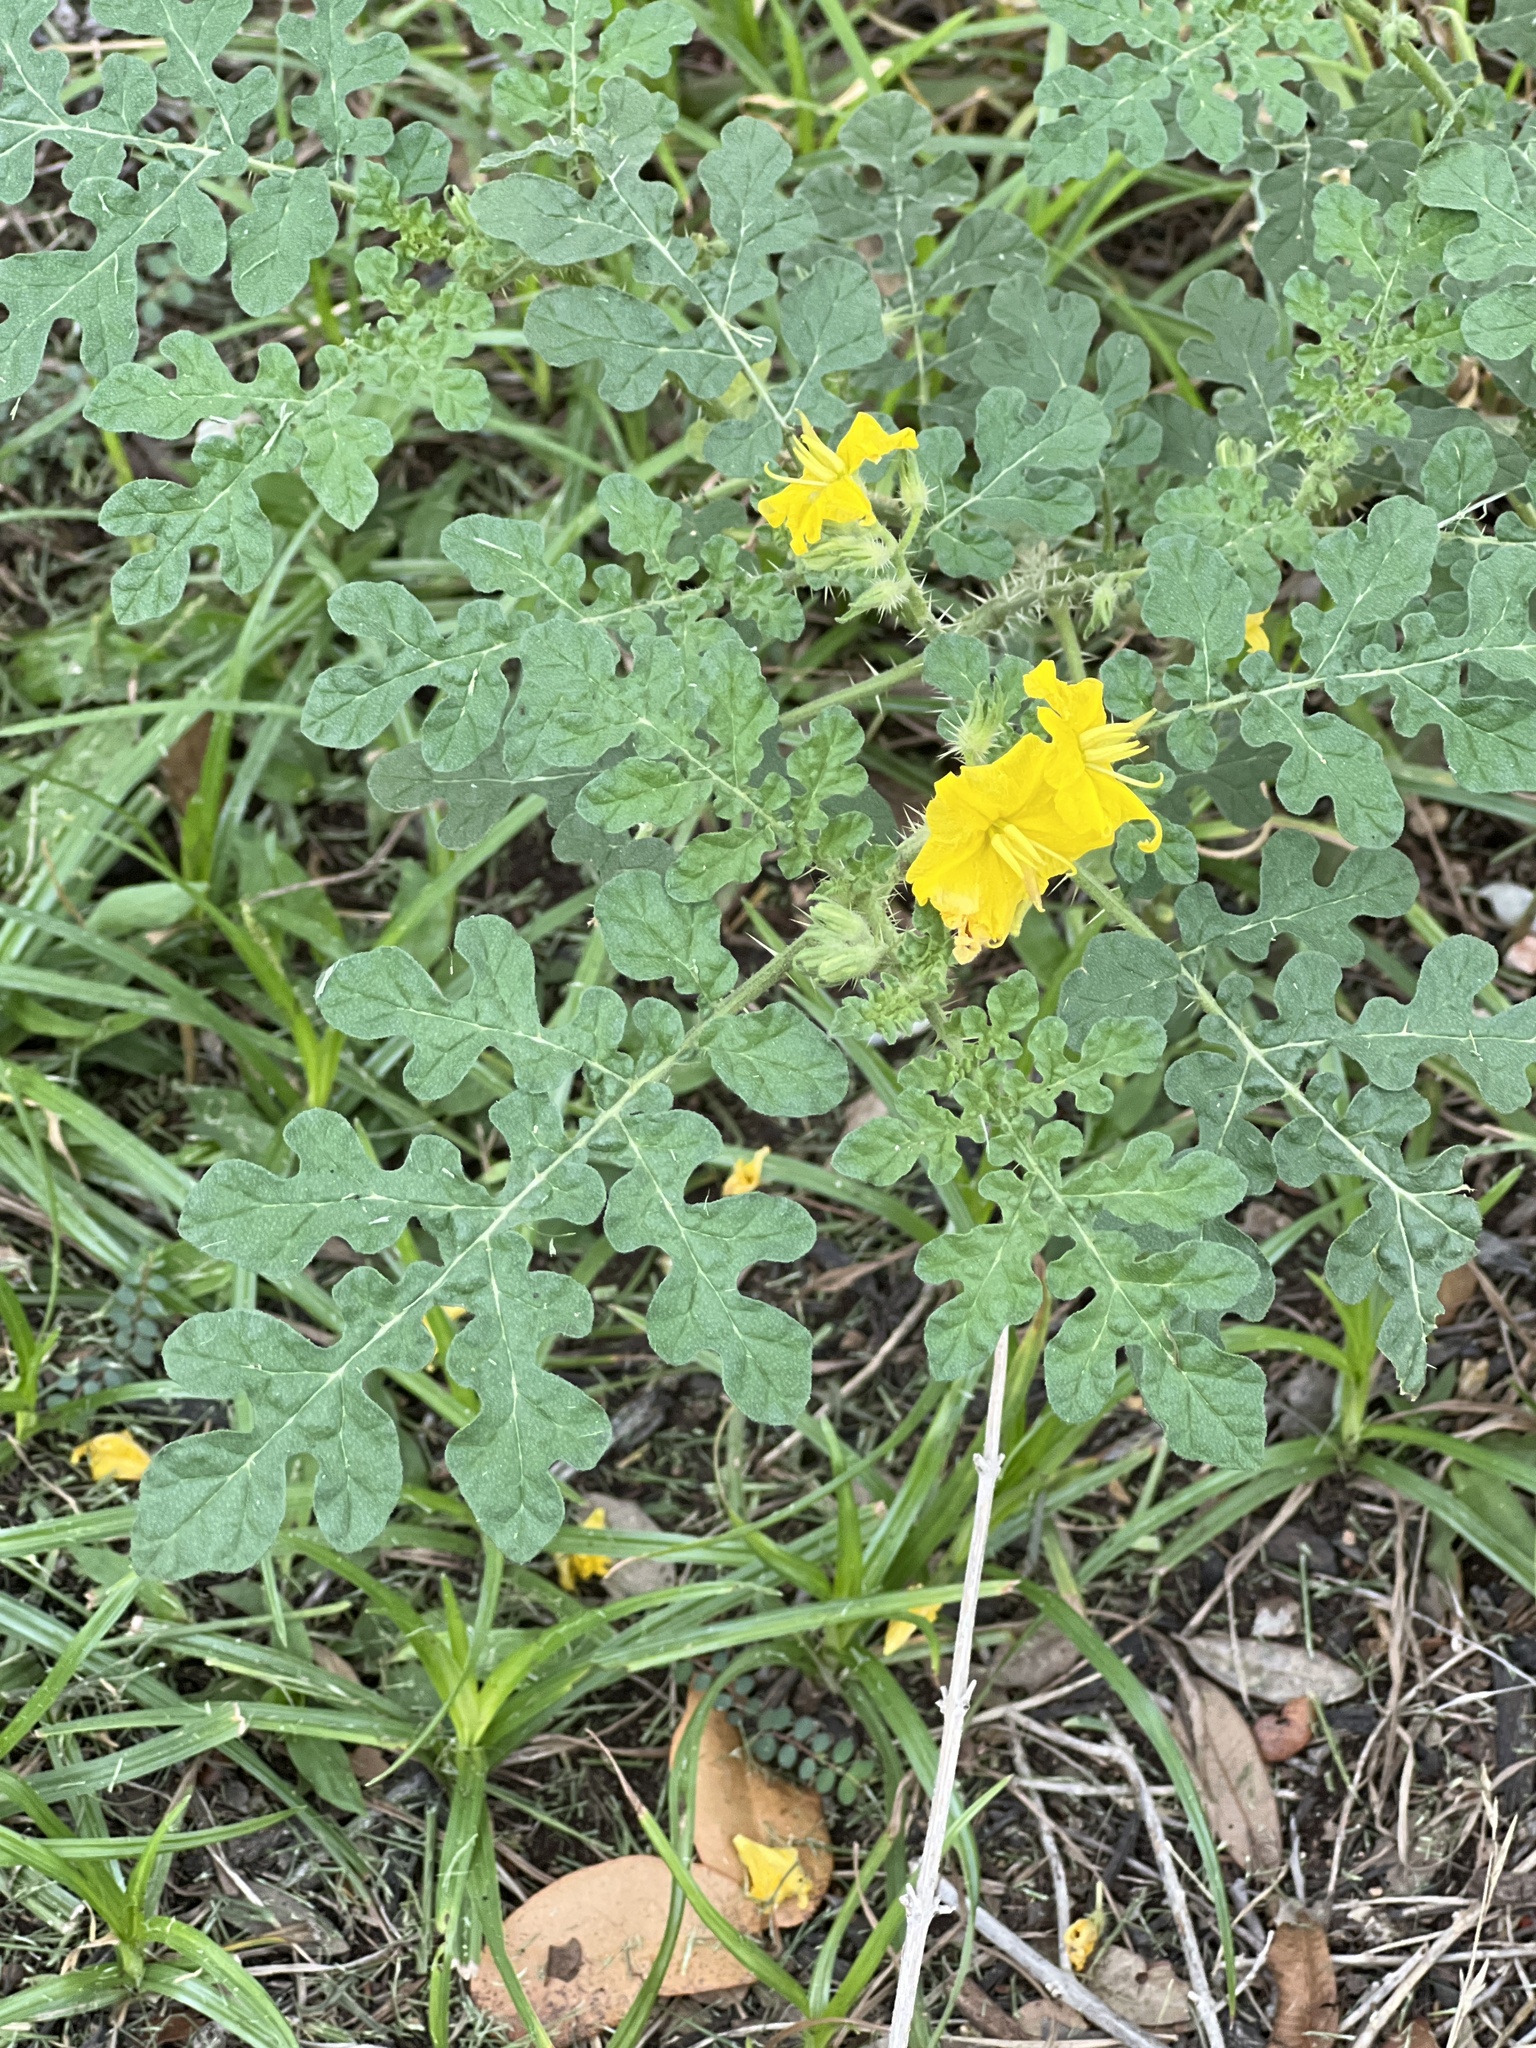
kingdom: Plantae
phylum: Tracheophyta
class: Magnoliopsida
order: Solanales
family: Solanaceae
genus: Solanum
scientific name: Solanum angustifolium
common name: Buffalobur nightshade
